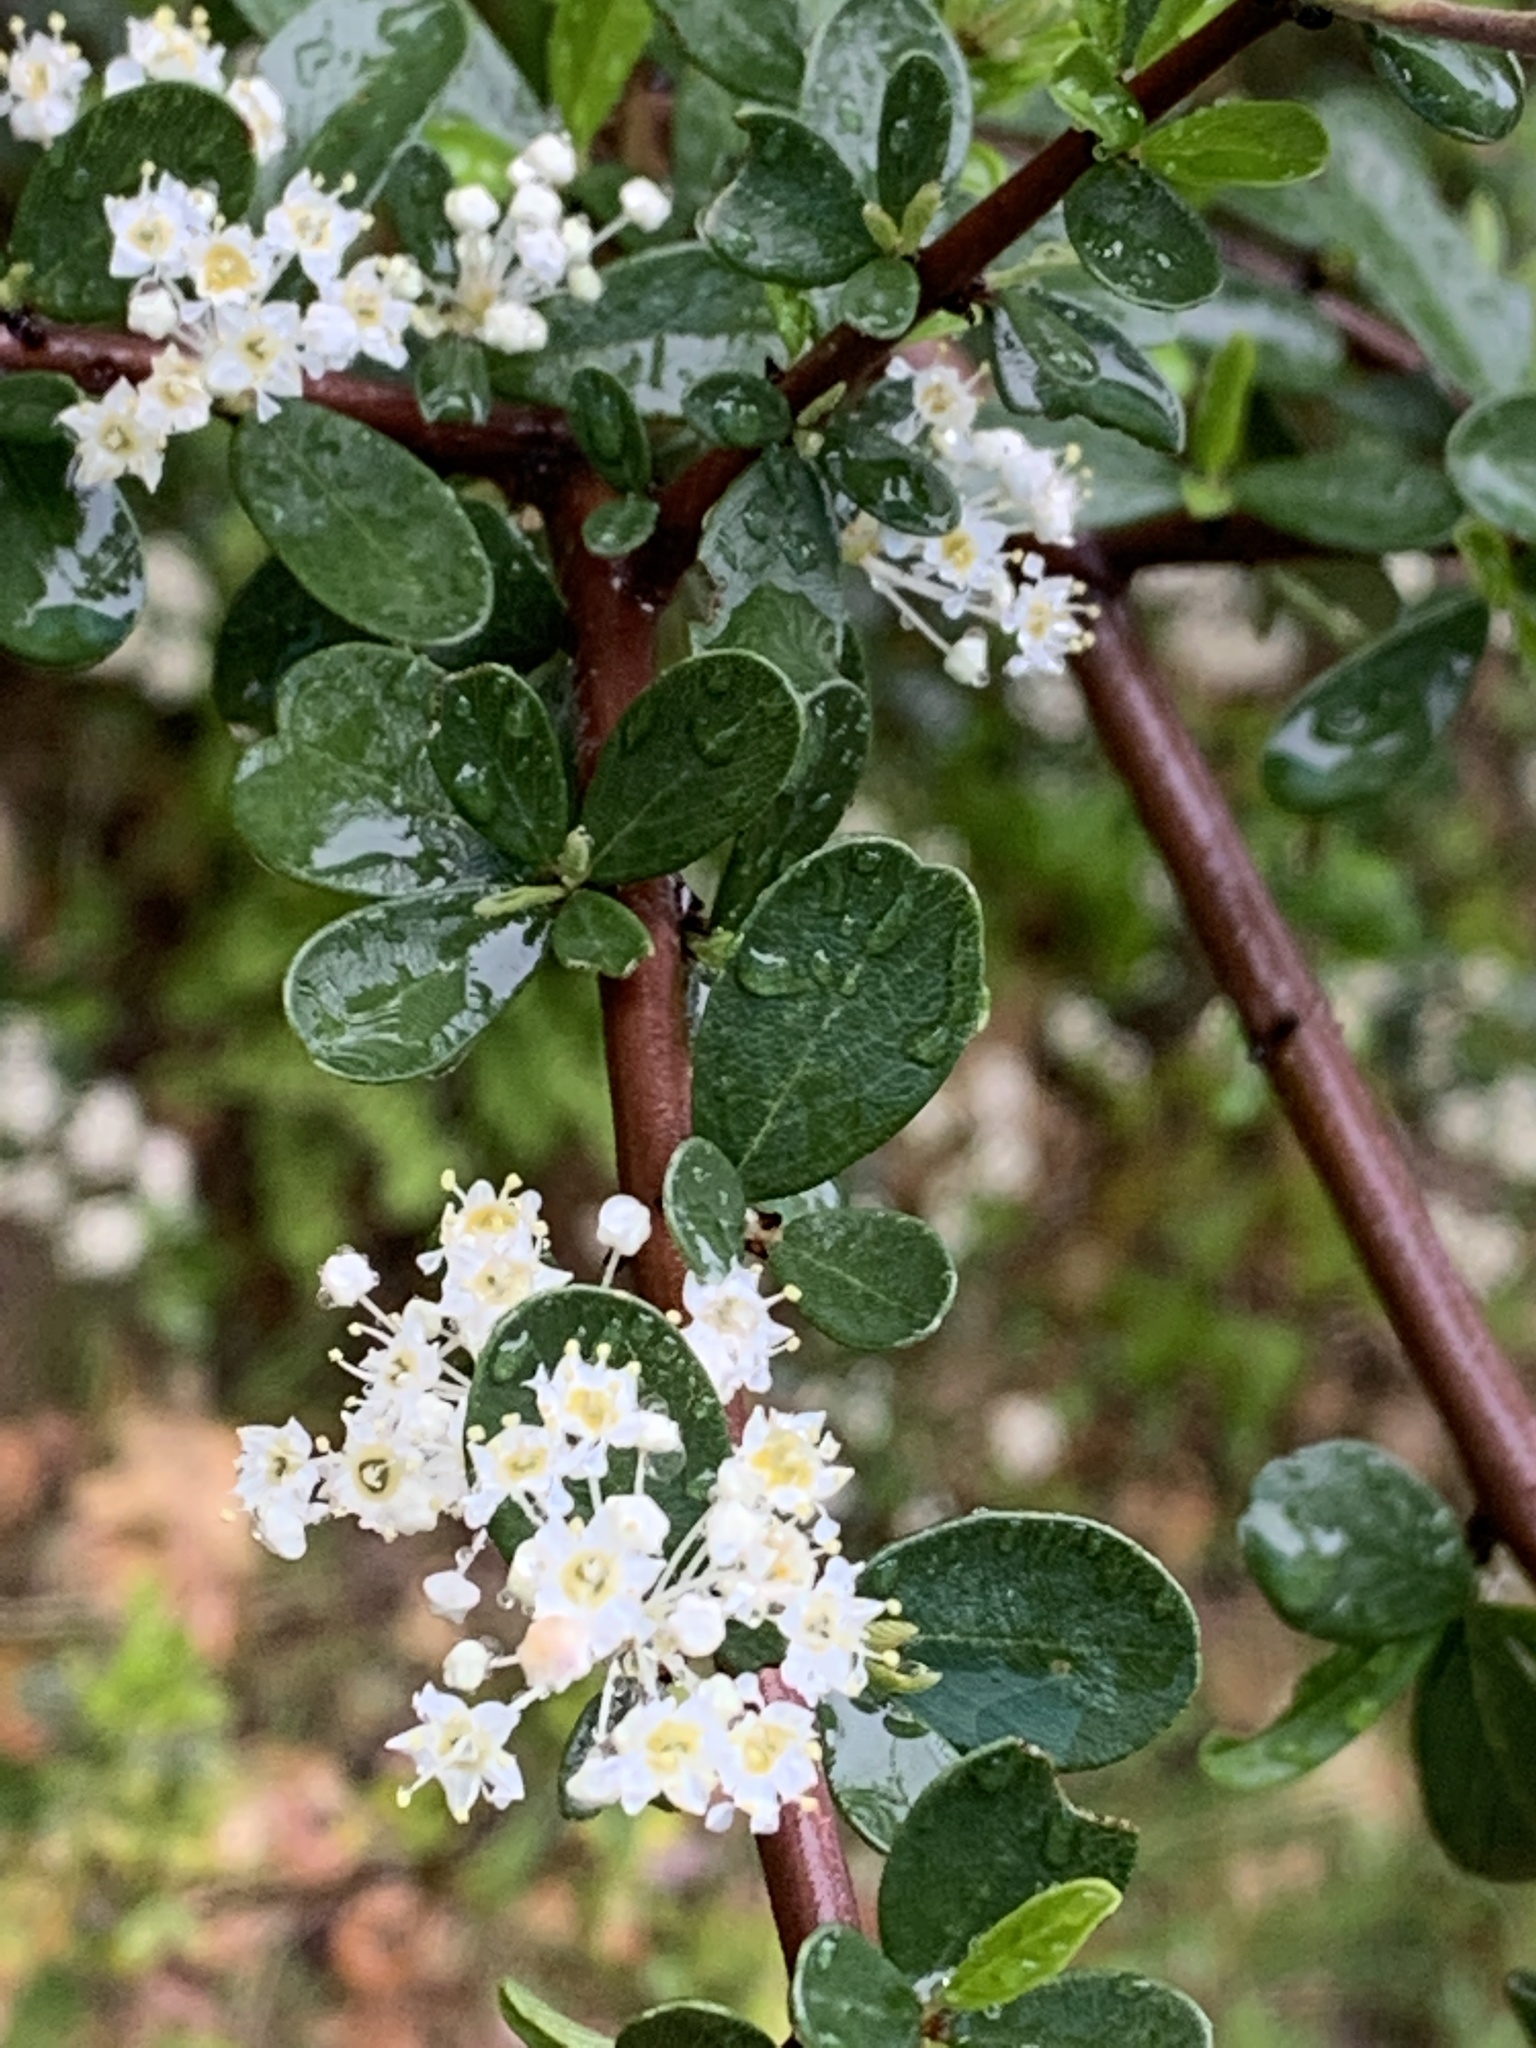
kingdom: Plantae
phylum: Tracheophyta
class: Magnoliopsida
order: Rosales
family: Rhamnaceae
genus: Ceanothus
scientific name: Ceanothus cuneatus
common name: Cuneate ceanothus
